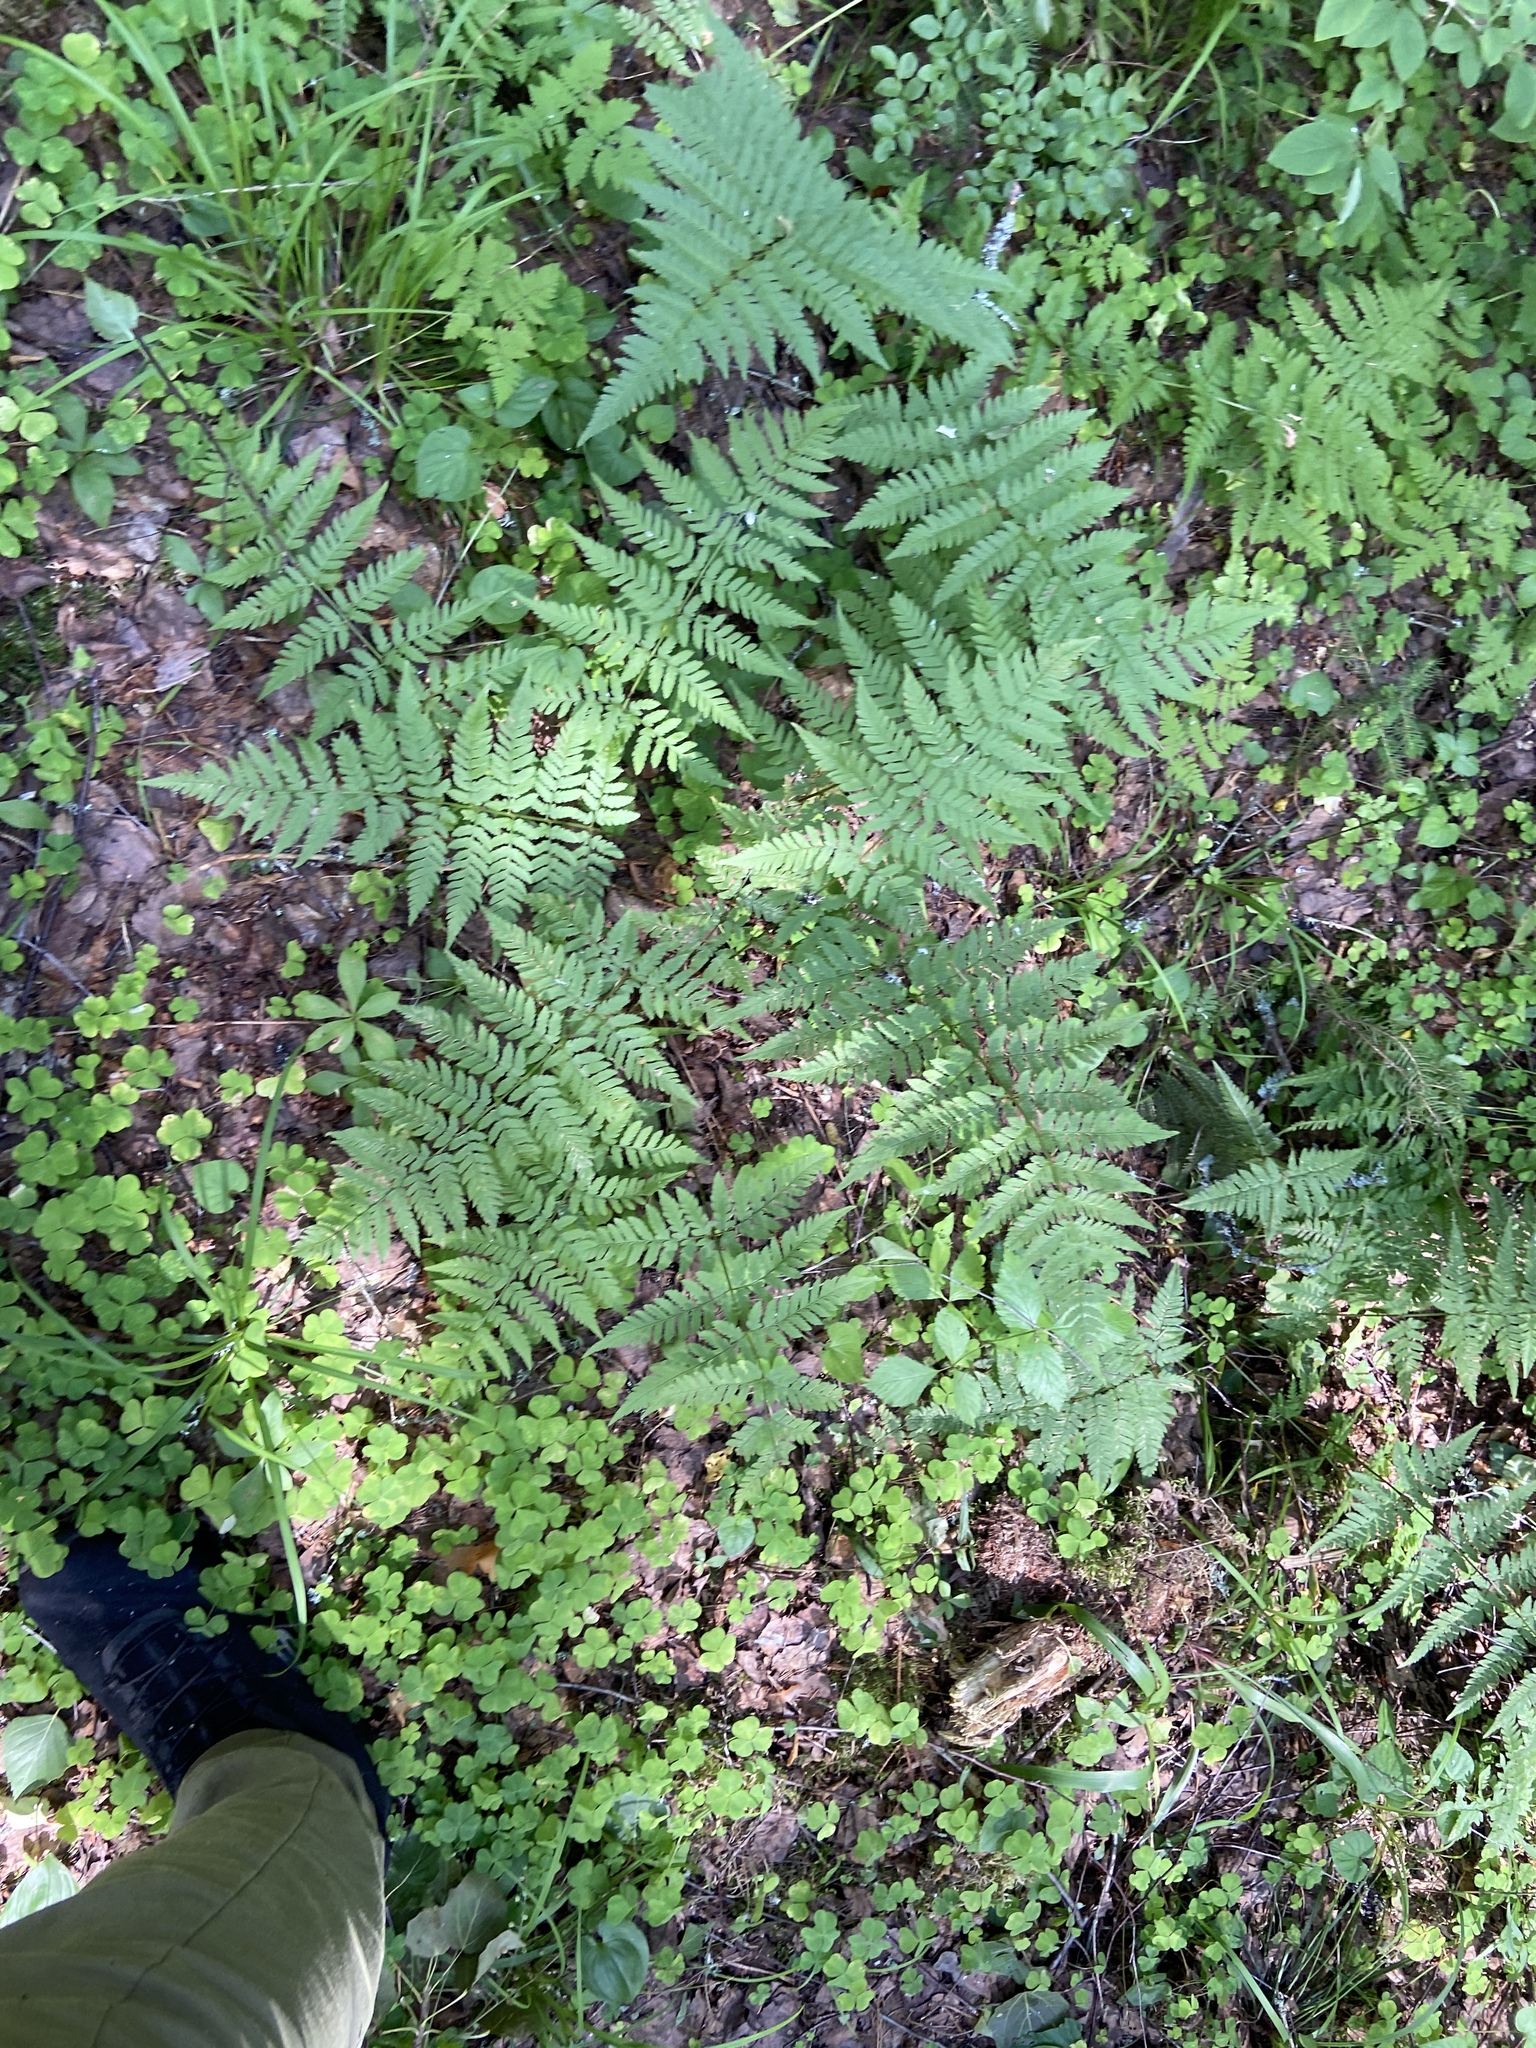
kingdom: Plantae
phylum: Tracheophyta
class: Polypodiopsida
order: Polypodiales
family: Dryopteridaceae
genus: Dryopteris
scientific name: Dryopteris carthusiana
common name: Narrow buckler-fern
